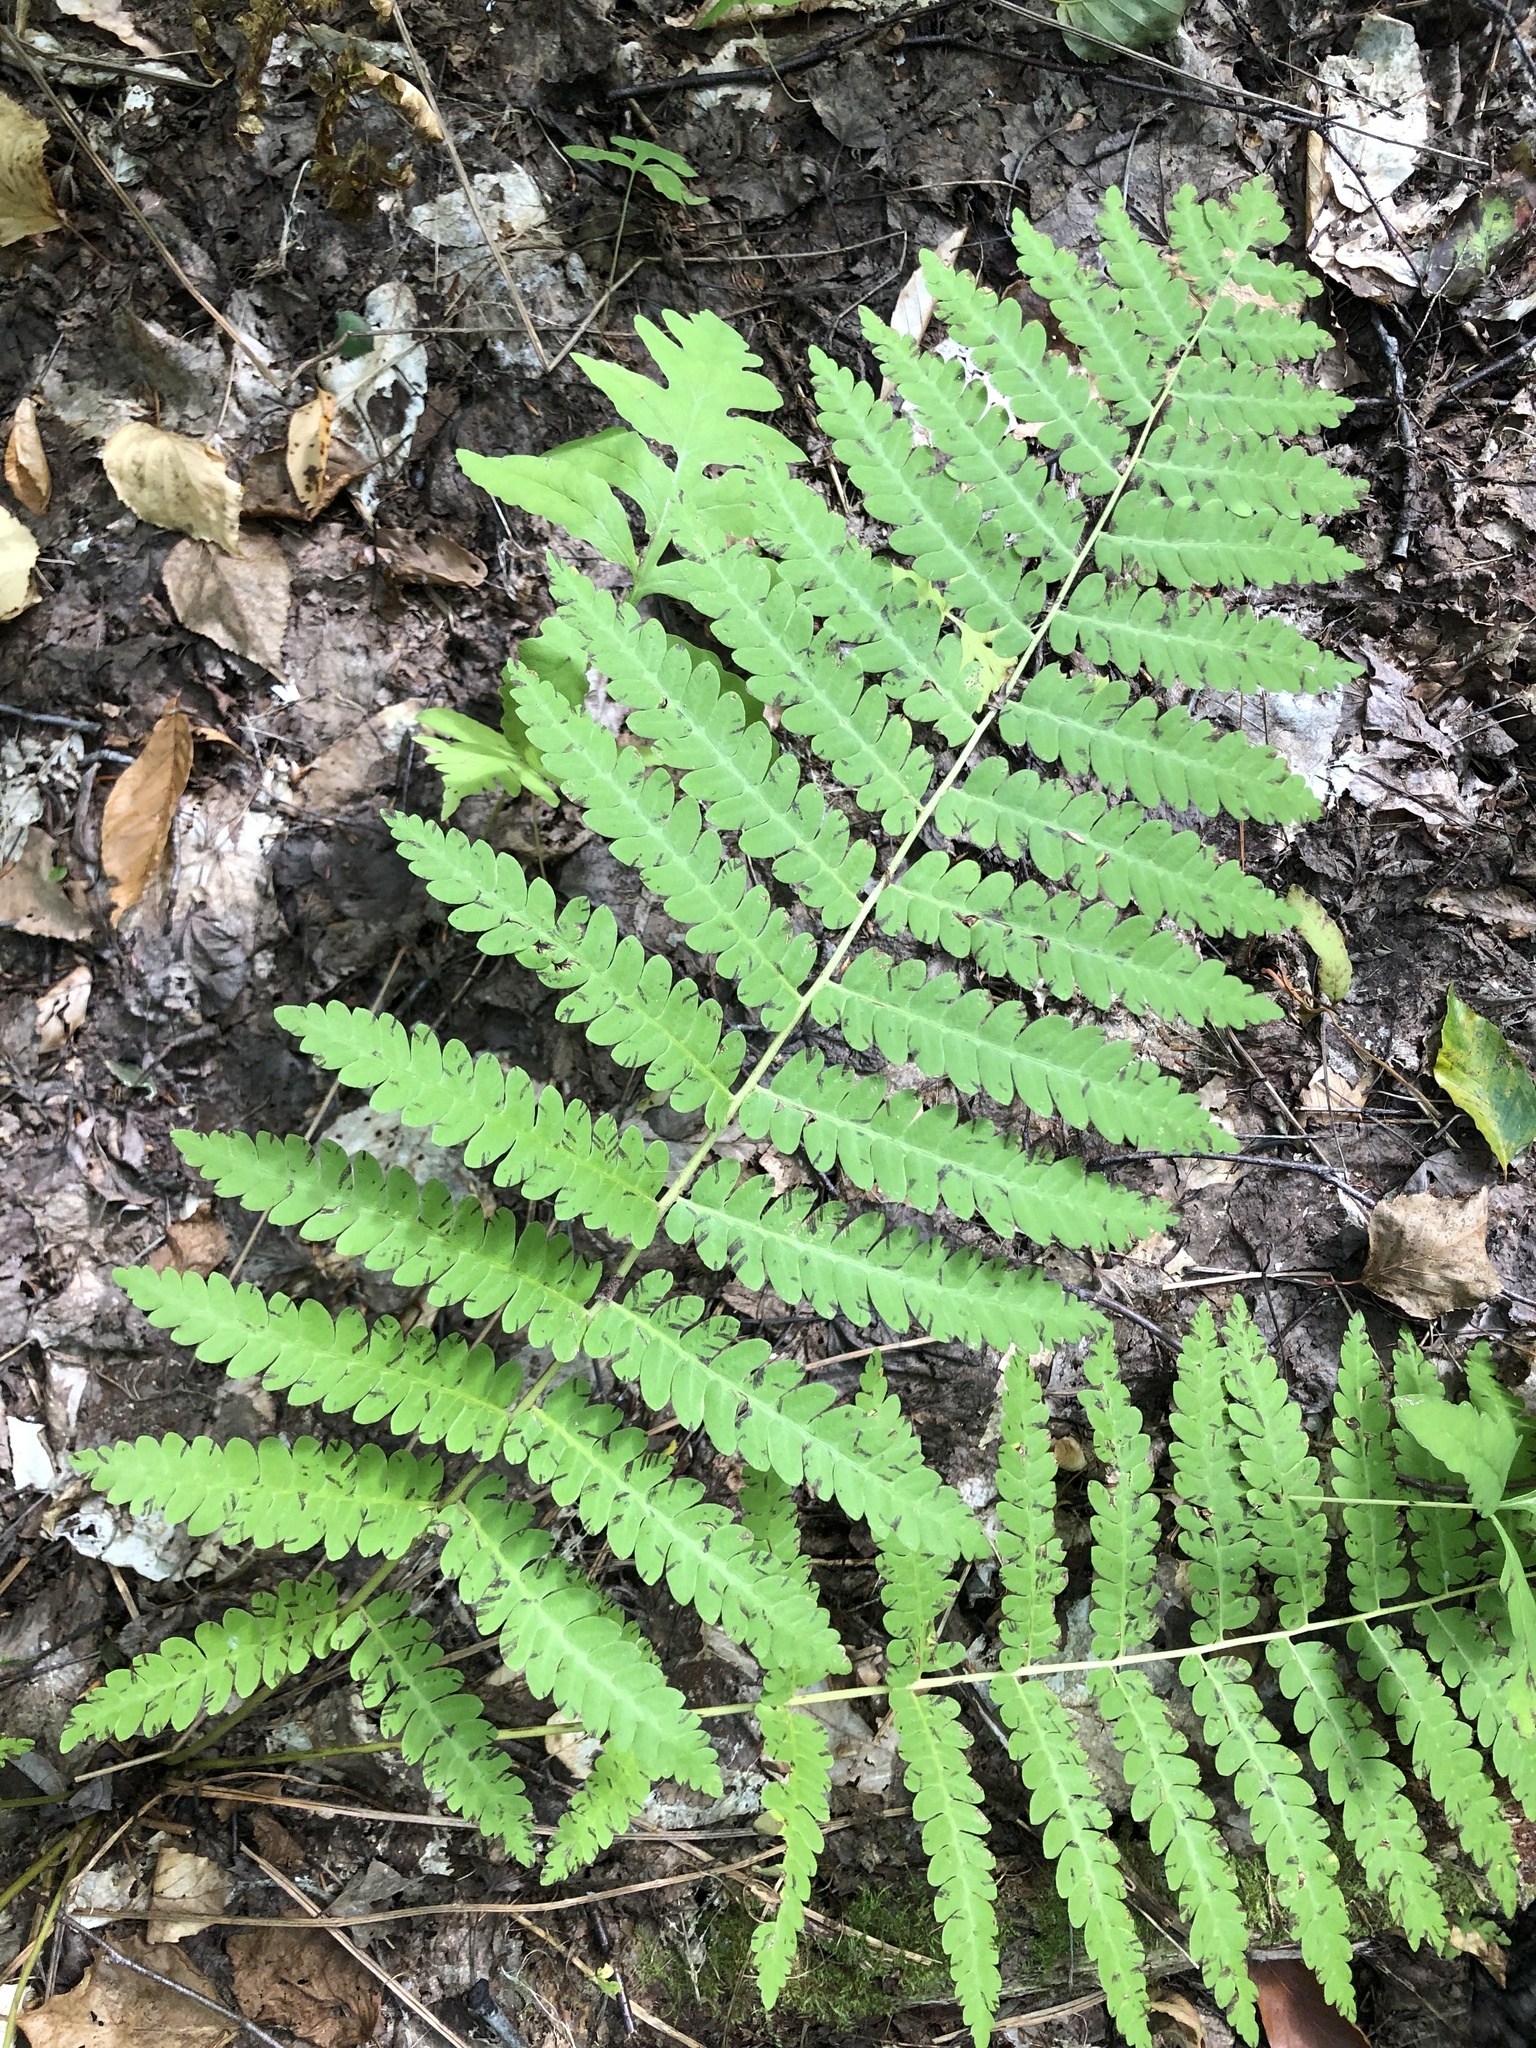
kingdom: Plantae
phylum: Tracheophyta
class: Polypodiopsida
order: Osmundales
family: Osmundaceae
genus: Claytosmunda
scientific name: Claytosmunda claytoniana
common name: Clayton's fern
